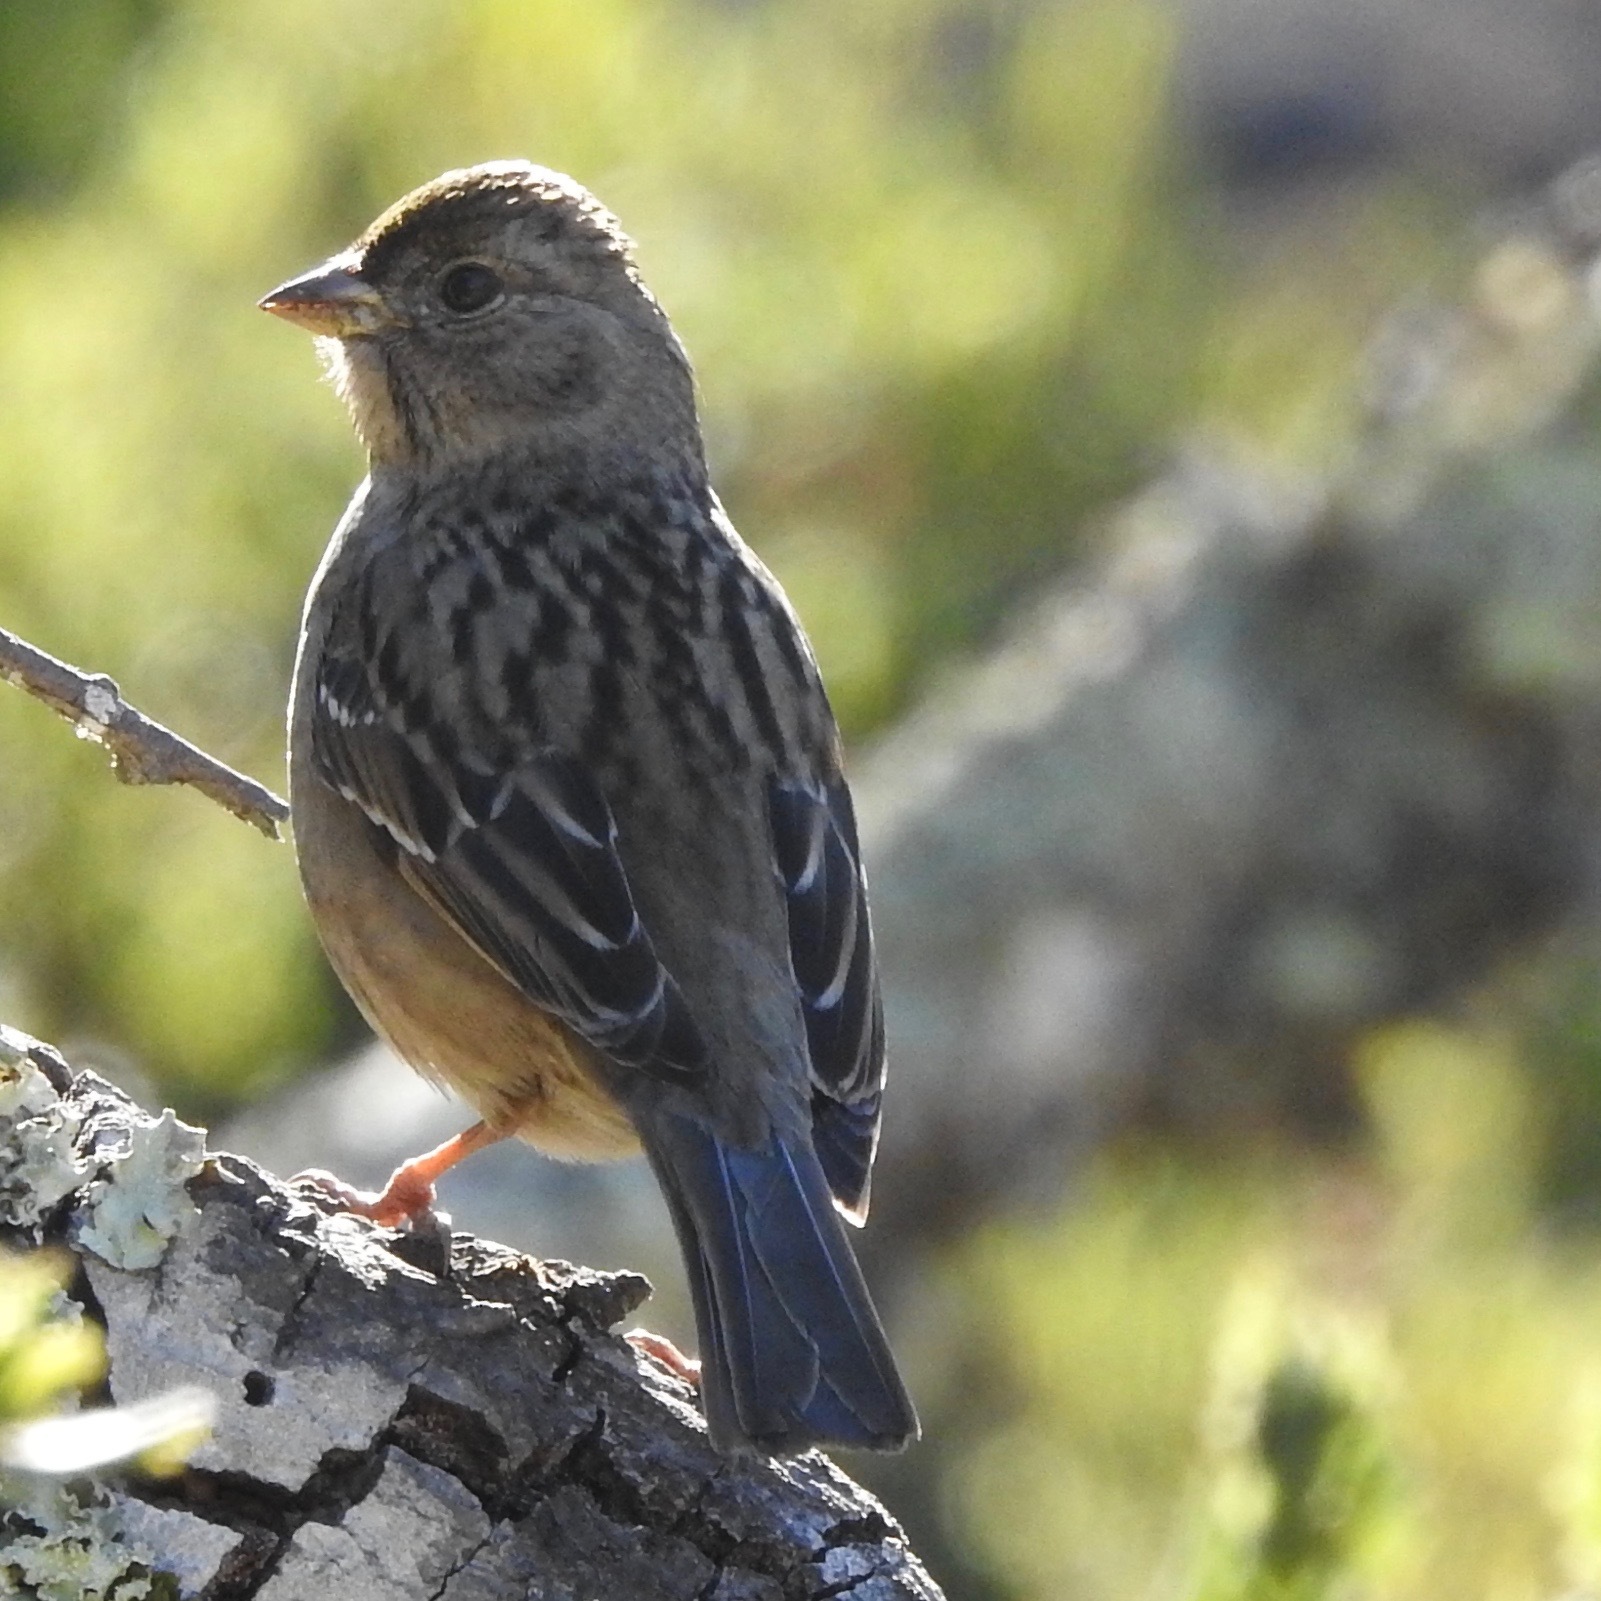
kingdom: Animalia
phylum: Chordata
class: Aves
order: Passeriformes
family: Passerellidae
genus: Zonotrichia
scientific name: Zonotrichia atricapilla
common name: Golden-crowned sparrow
